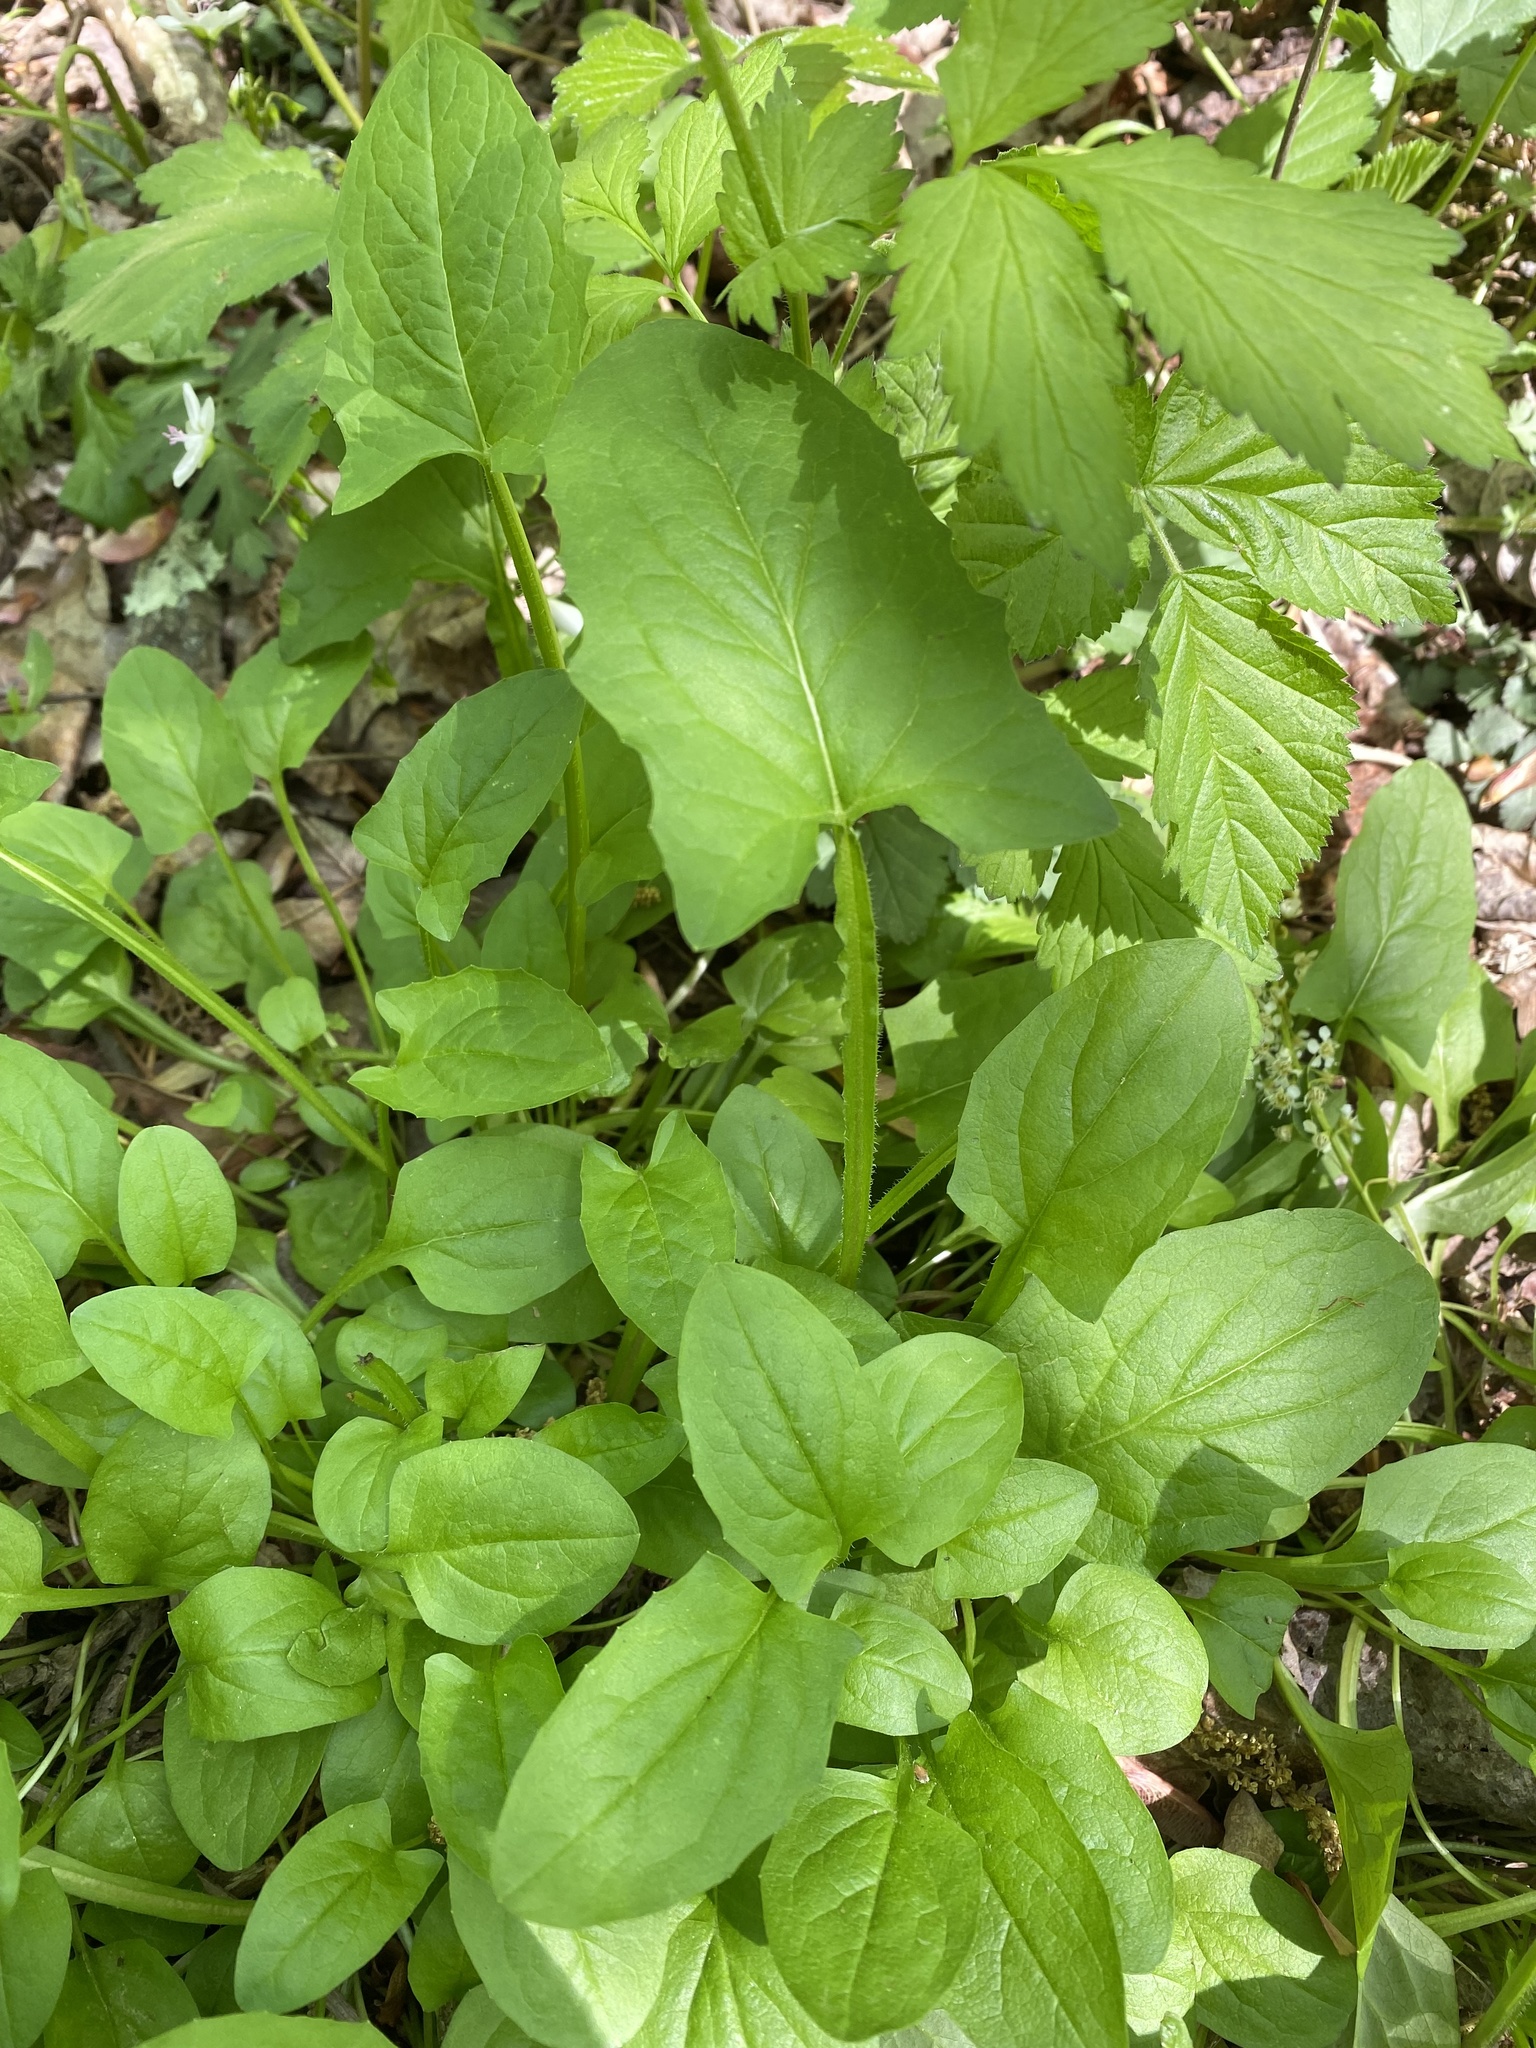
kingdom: Plantae
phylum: Tracheophyta
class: Magnoliopsida
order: Asterales
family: Asteraceae
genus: Nabalus
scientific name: Nabalus crepidineus
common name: Nodding rattlesnakeroot
